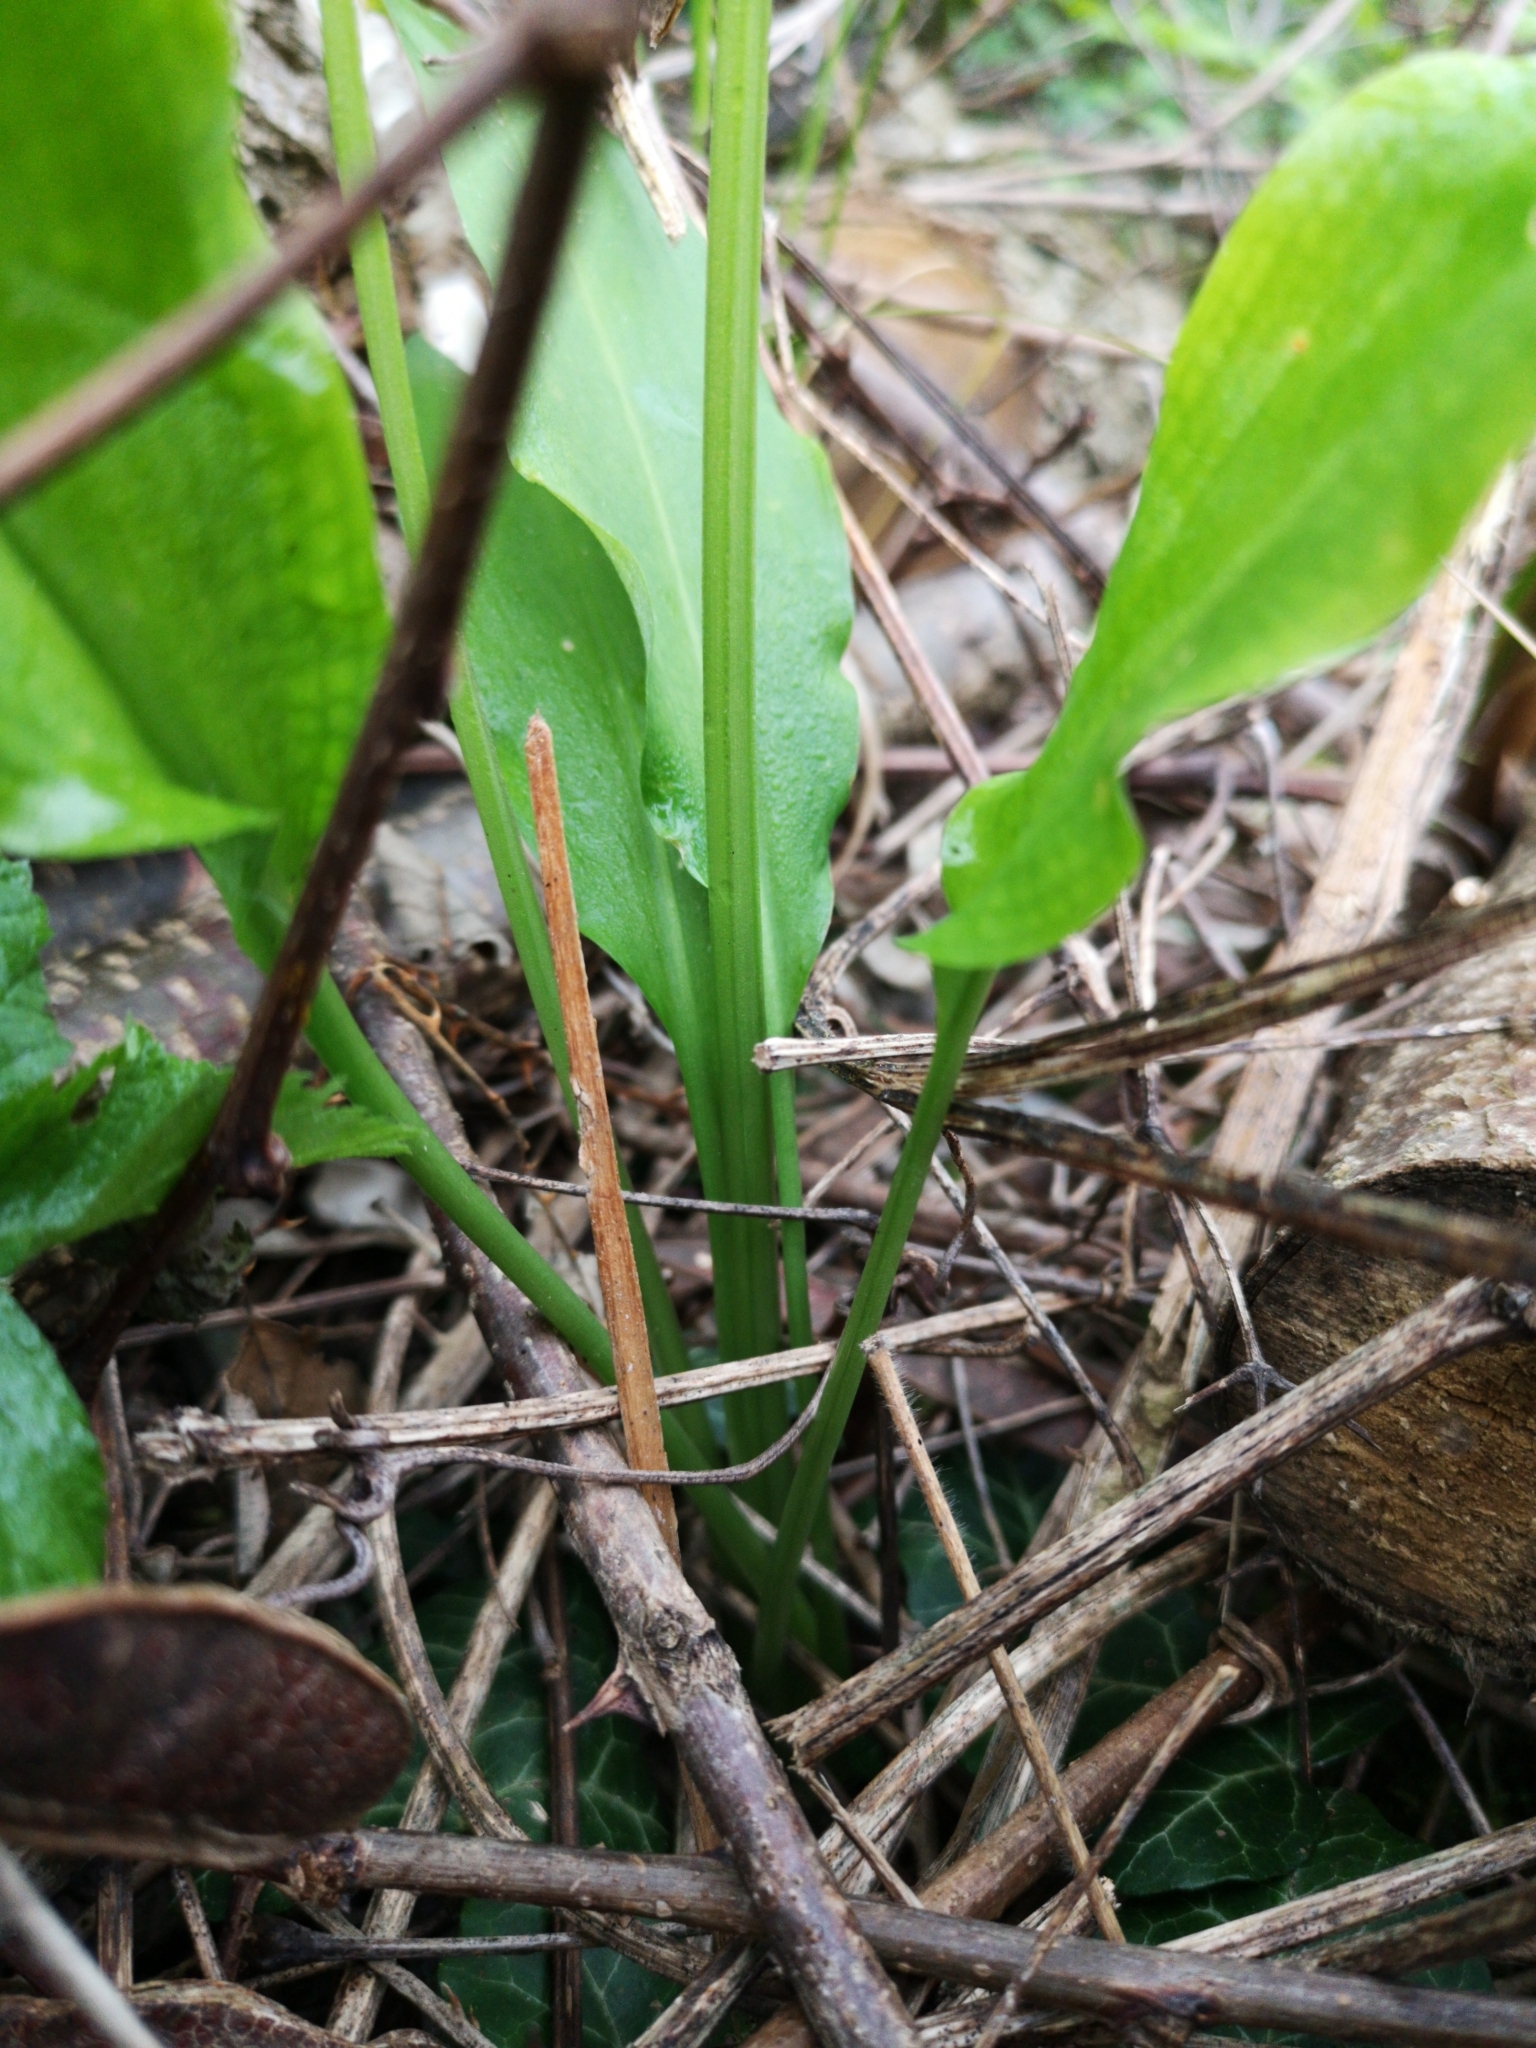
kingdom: Plantae
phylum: Tracheophyta
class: Liliopsida
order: Asparagales
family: Amaryllidaceae
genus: Allium
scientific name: Allium ursinum
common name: Ramsons
